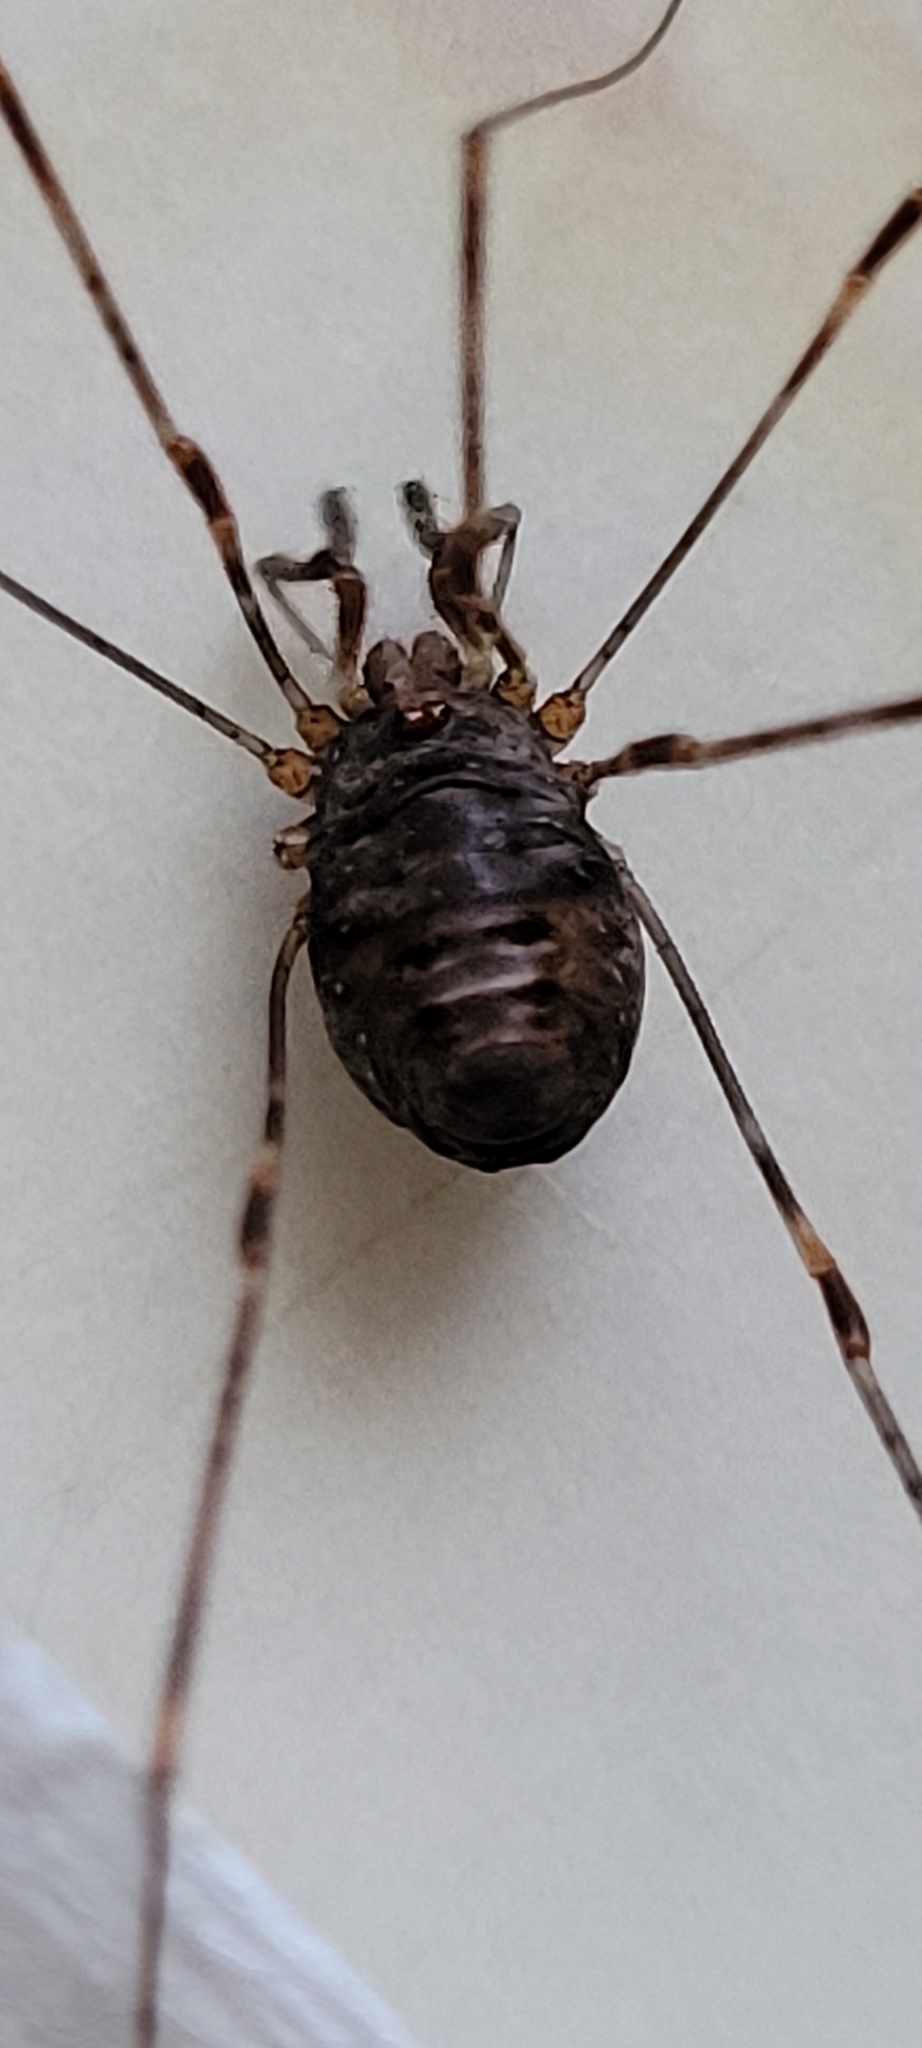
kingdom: Animalia
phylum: Arthropoda
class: Arachnida
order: Opiliones
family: Phalangiidae
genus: Dicranopalpus
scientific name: Dicranopalpus ramosus
